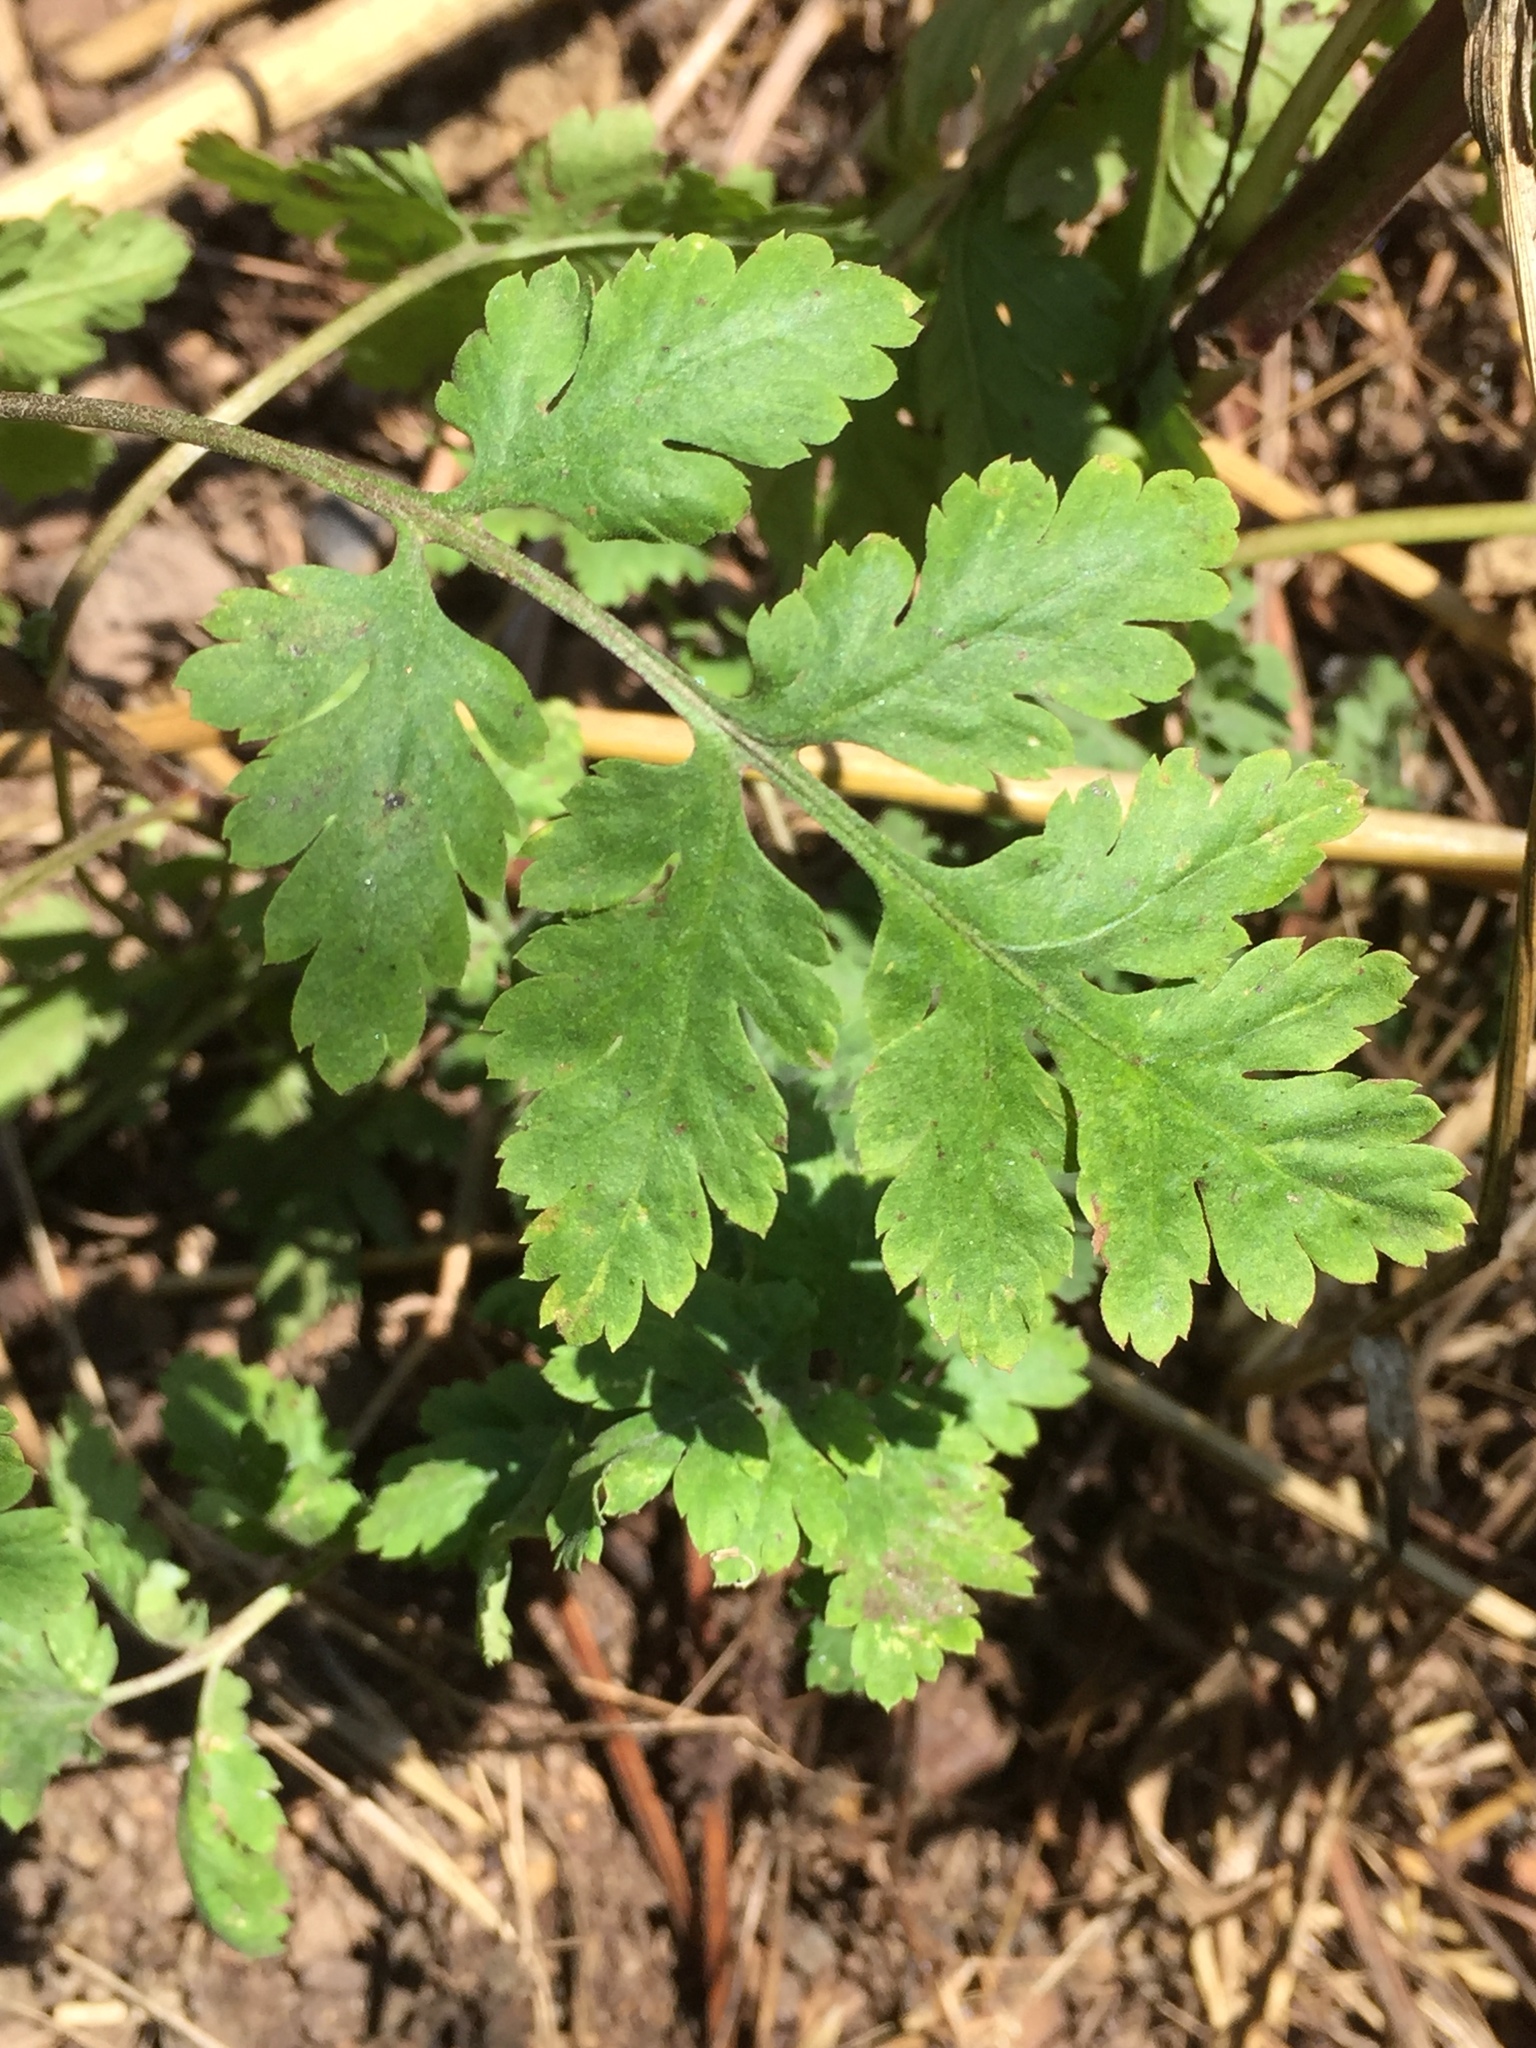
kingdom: Plantae
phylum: Tracheophyta
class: Magnoliopsida
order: Asterales
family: Asteraceae
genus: Tanacetum
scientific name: Tanacetum parthenium
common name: Feverfew
